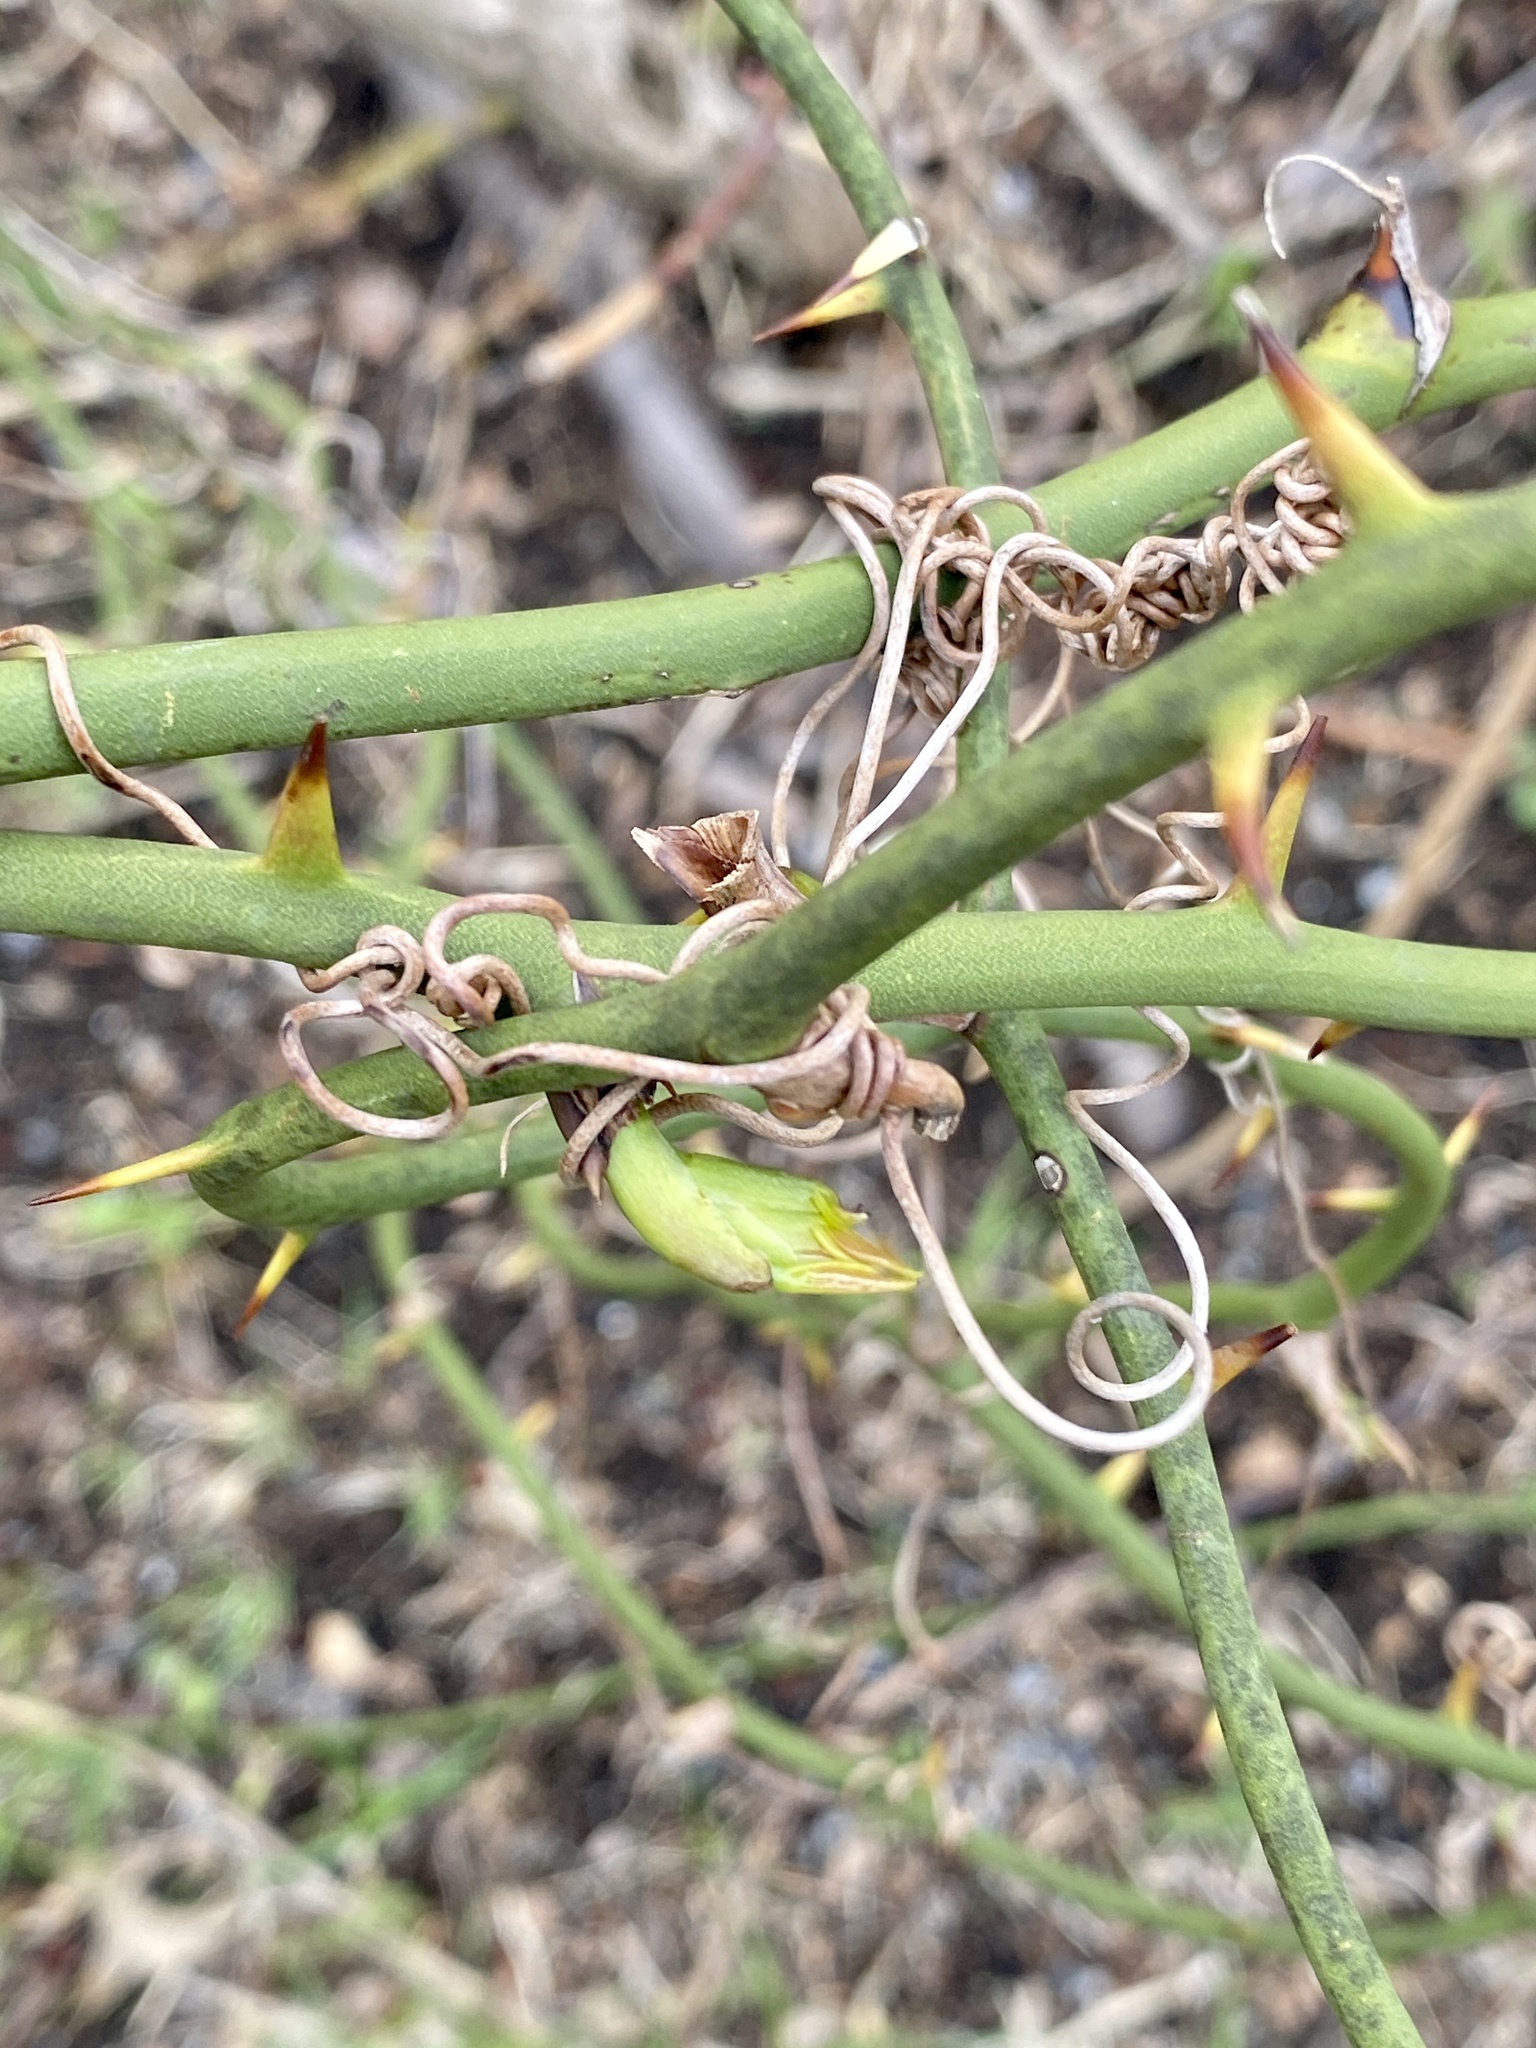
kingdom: Plantae
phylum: Tracheophyta
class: Liliopsida
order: Liliales
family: Smilacaceae
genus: Smilax
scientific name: Smilax rotundifolia
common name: Bullbriar
